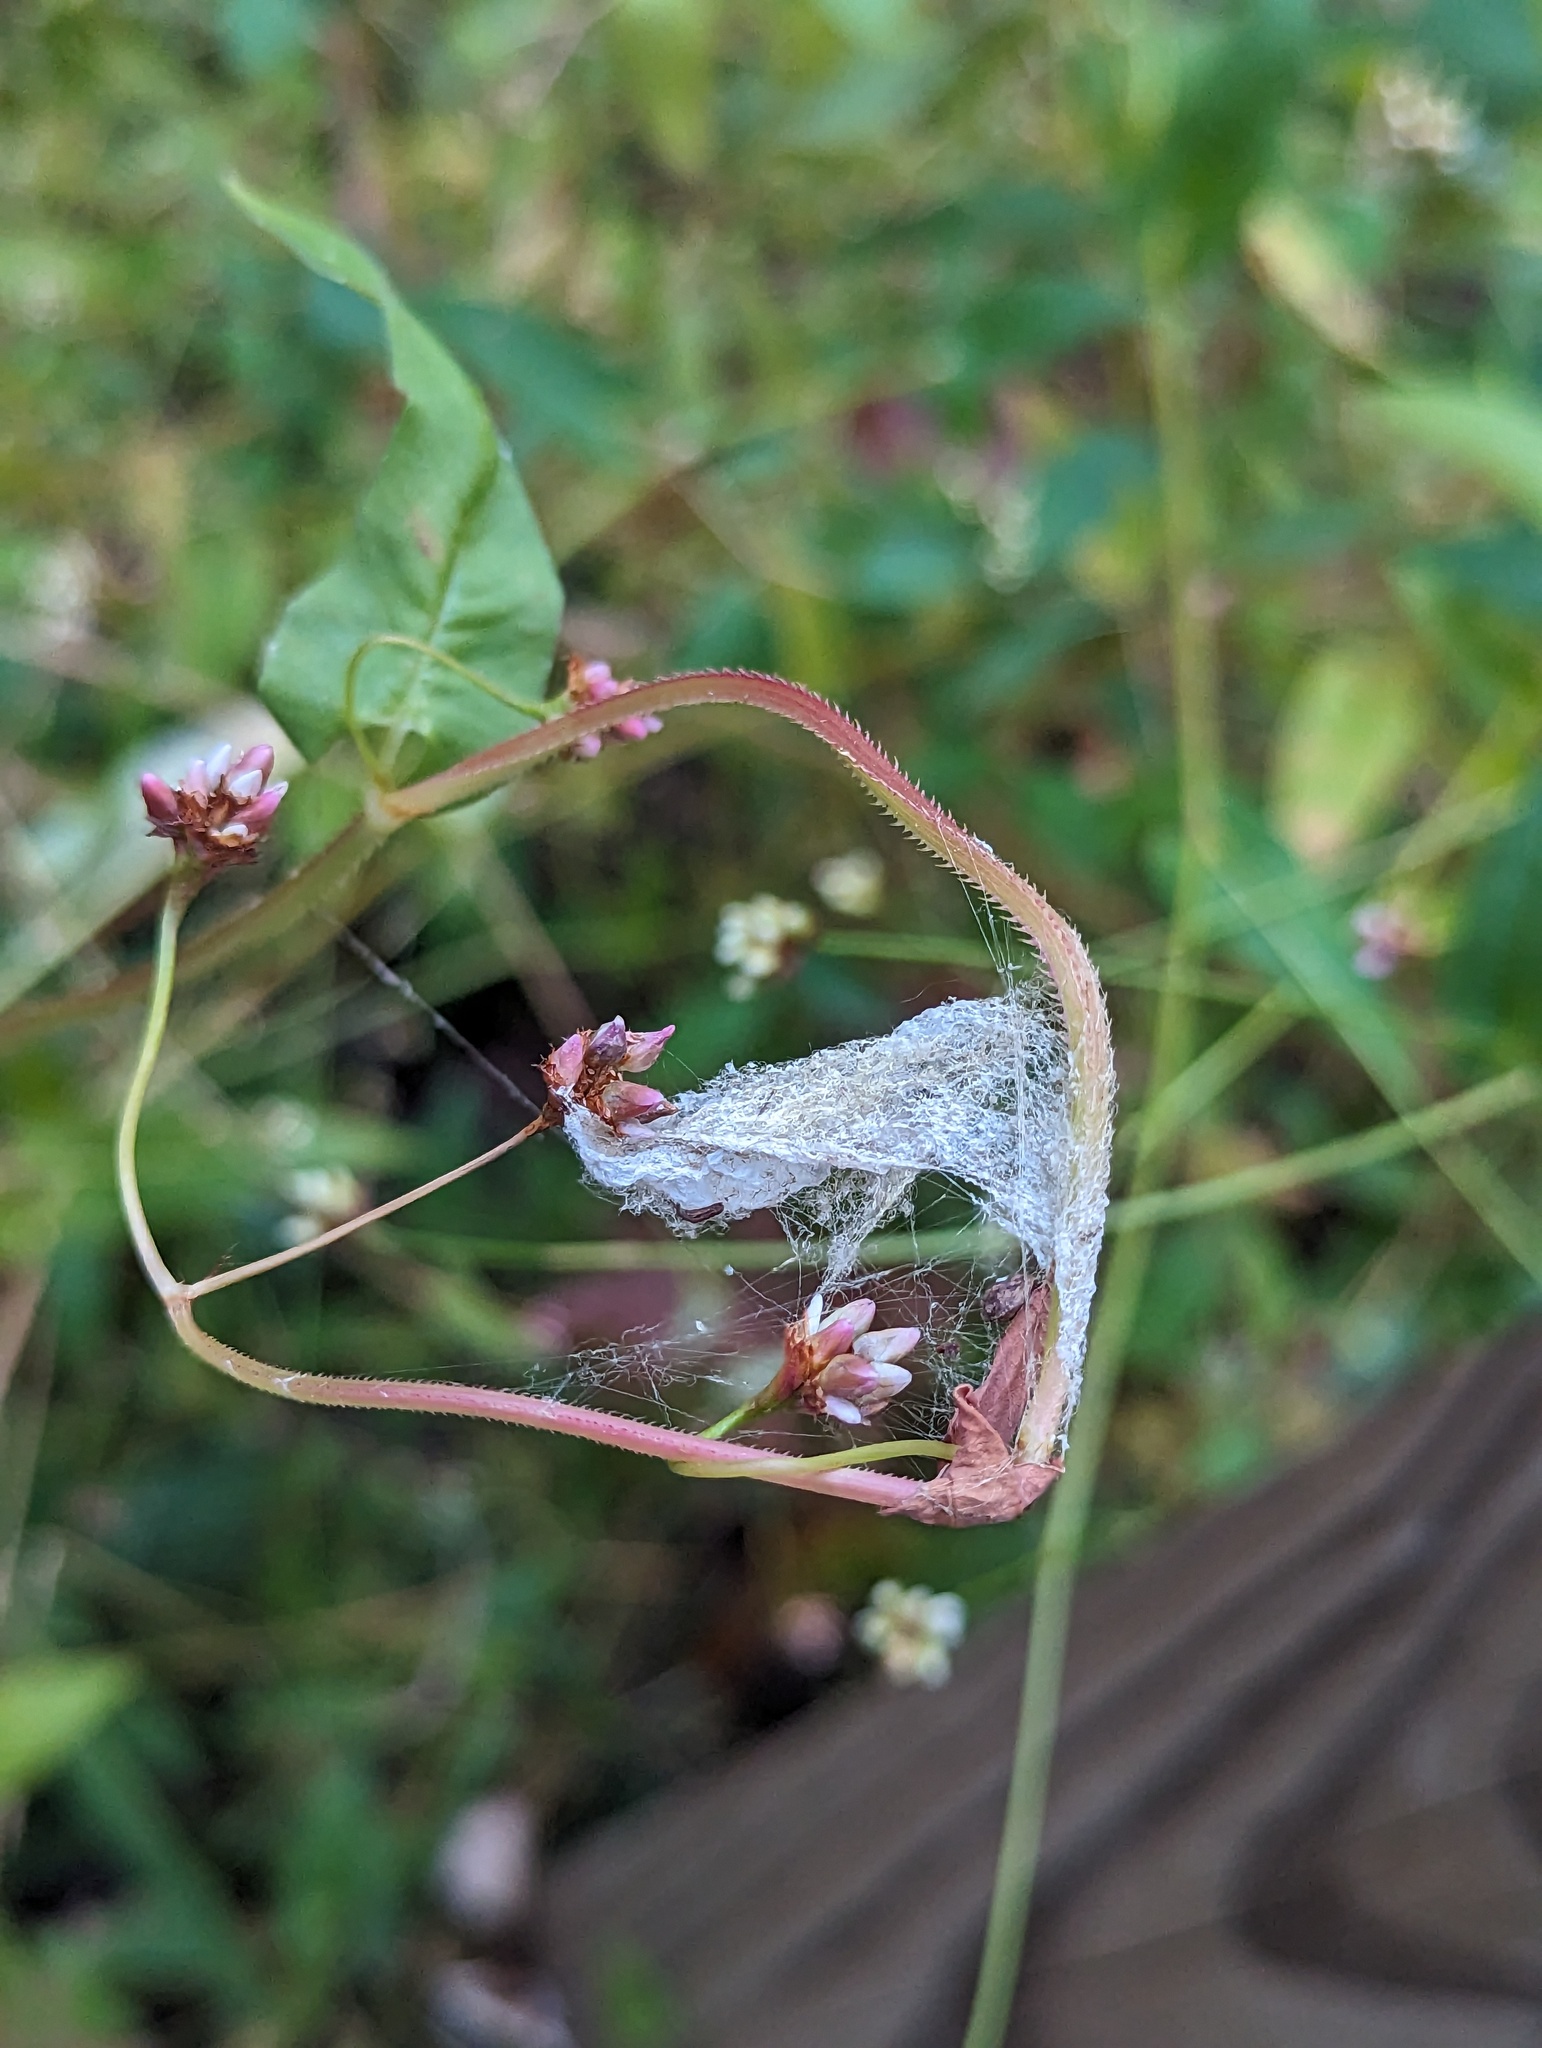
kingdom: Plantae
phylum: Tracheophyta
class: Magnoliopsida
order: Caryophyllales
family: Polygonaceae
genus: Persicaria
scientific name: Persicaria sagittata
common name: American tearthumb
